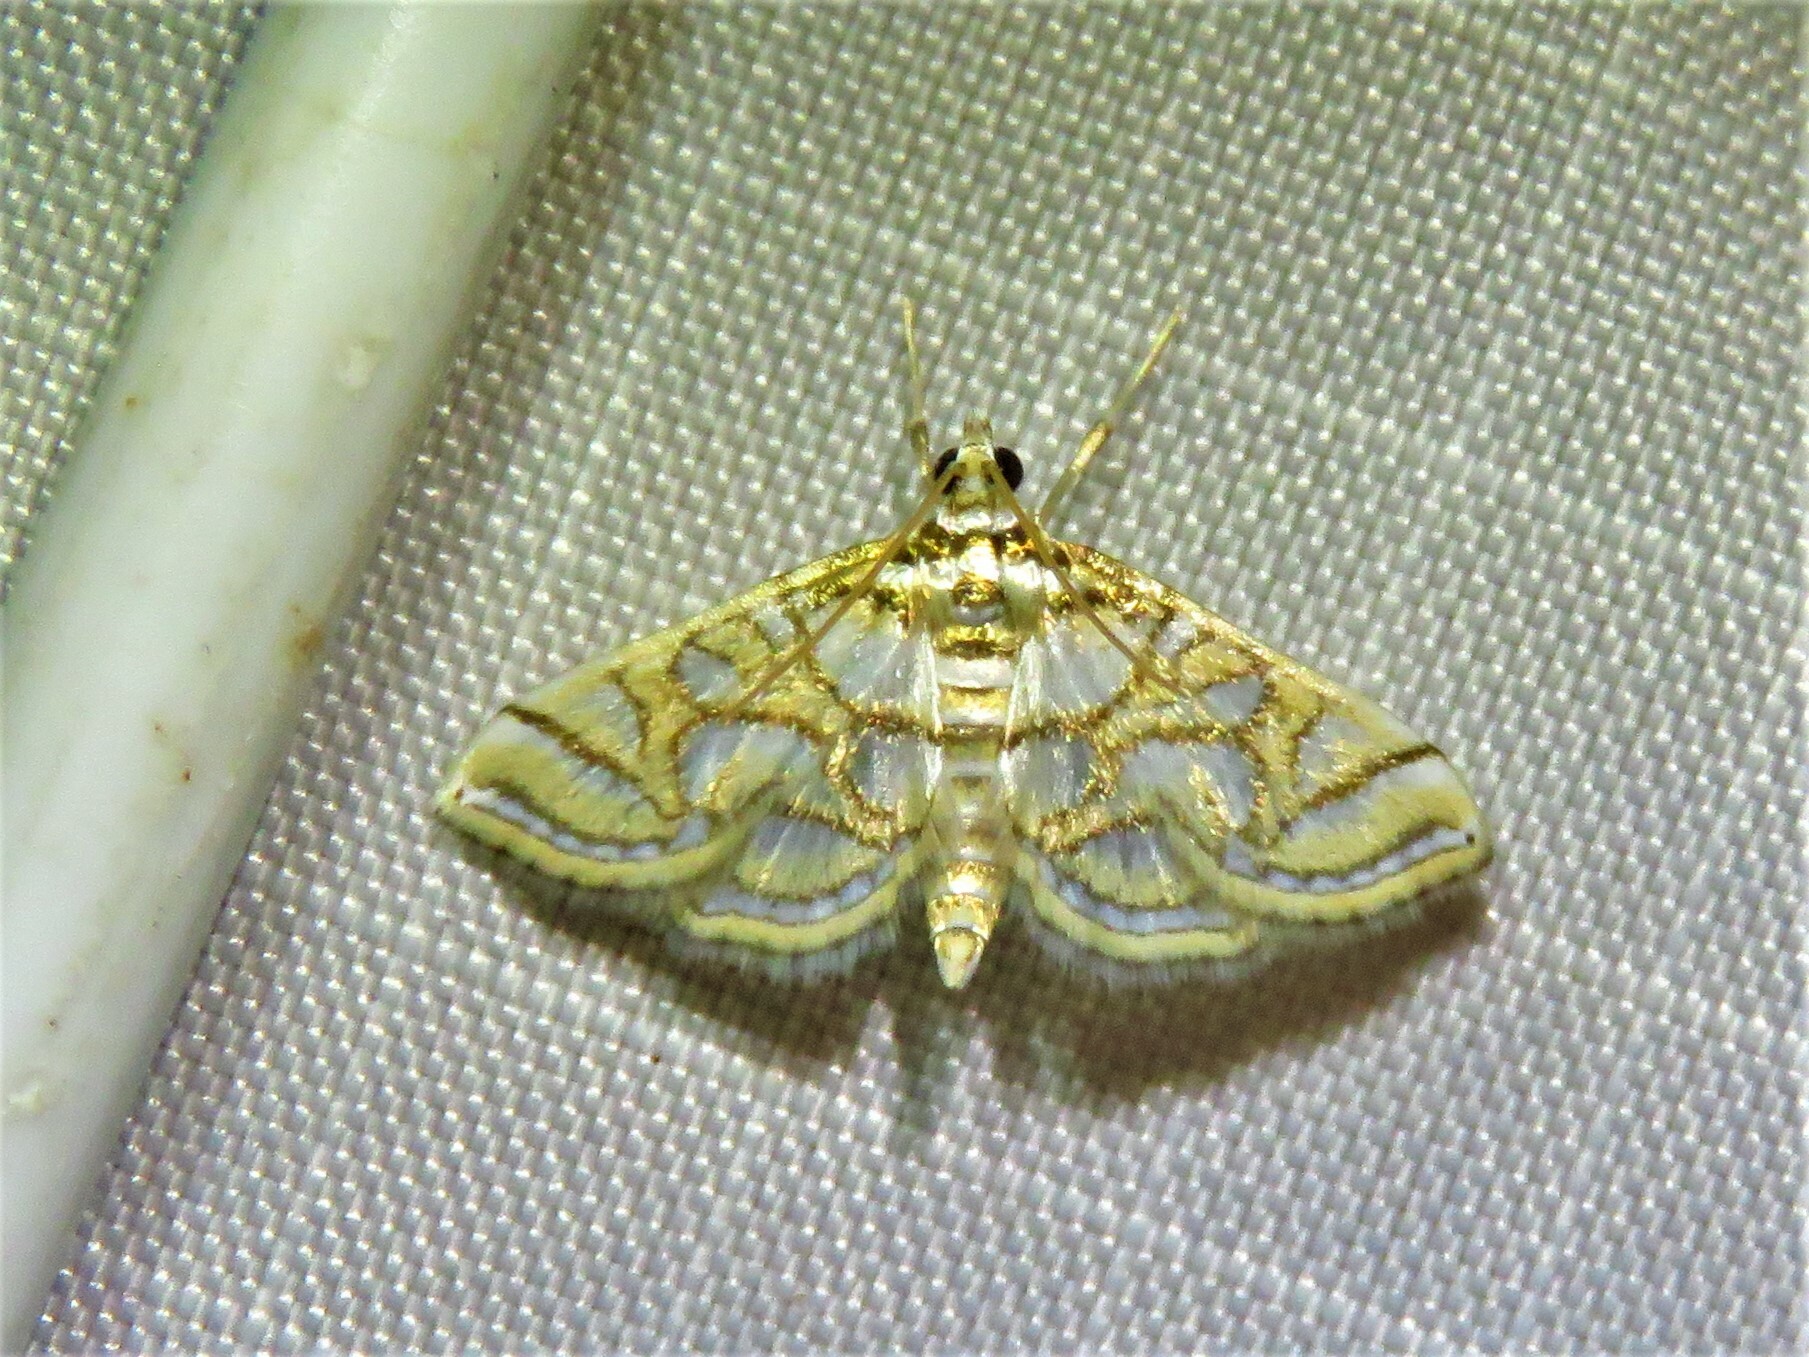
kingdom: Animalia
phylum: Arthropoda
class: Insecta
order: Lepidoptera
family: Crambidae
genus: Pseudopyrausta
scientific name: Pseudopyrausta santatalis
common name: Moth
